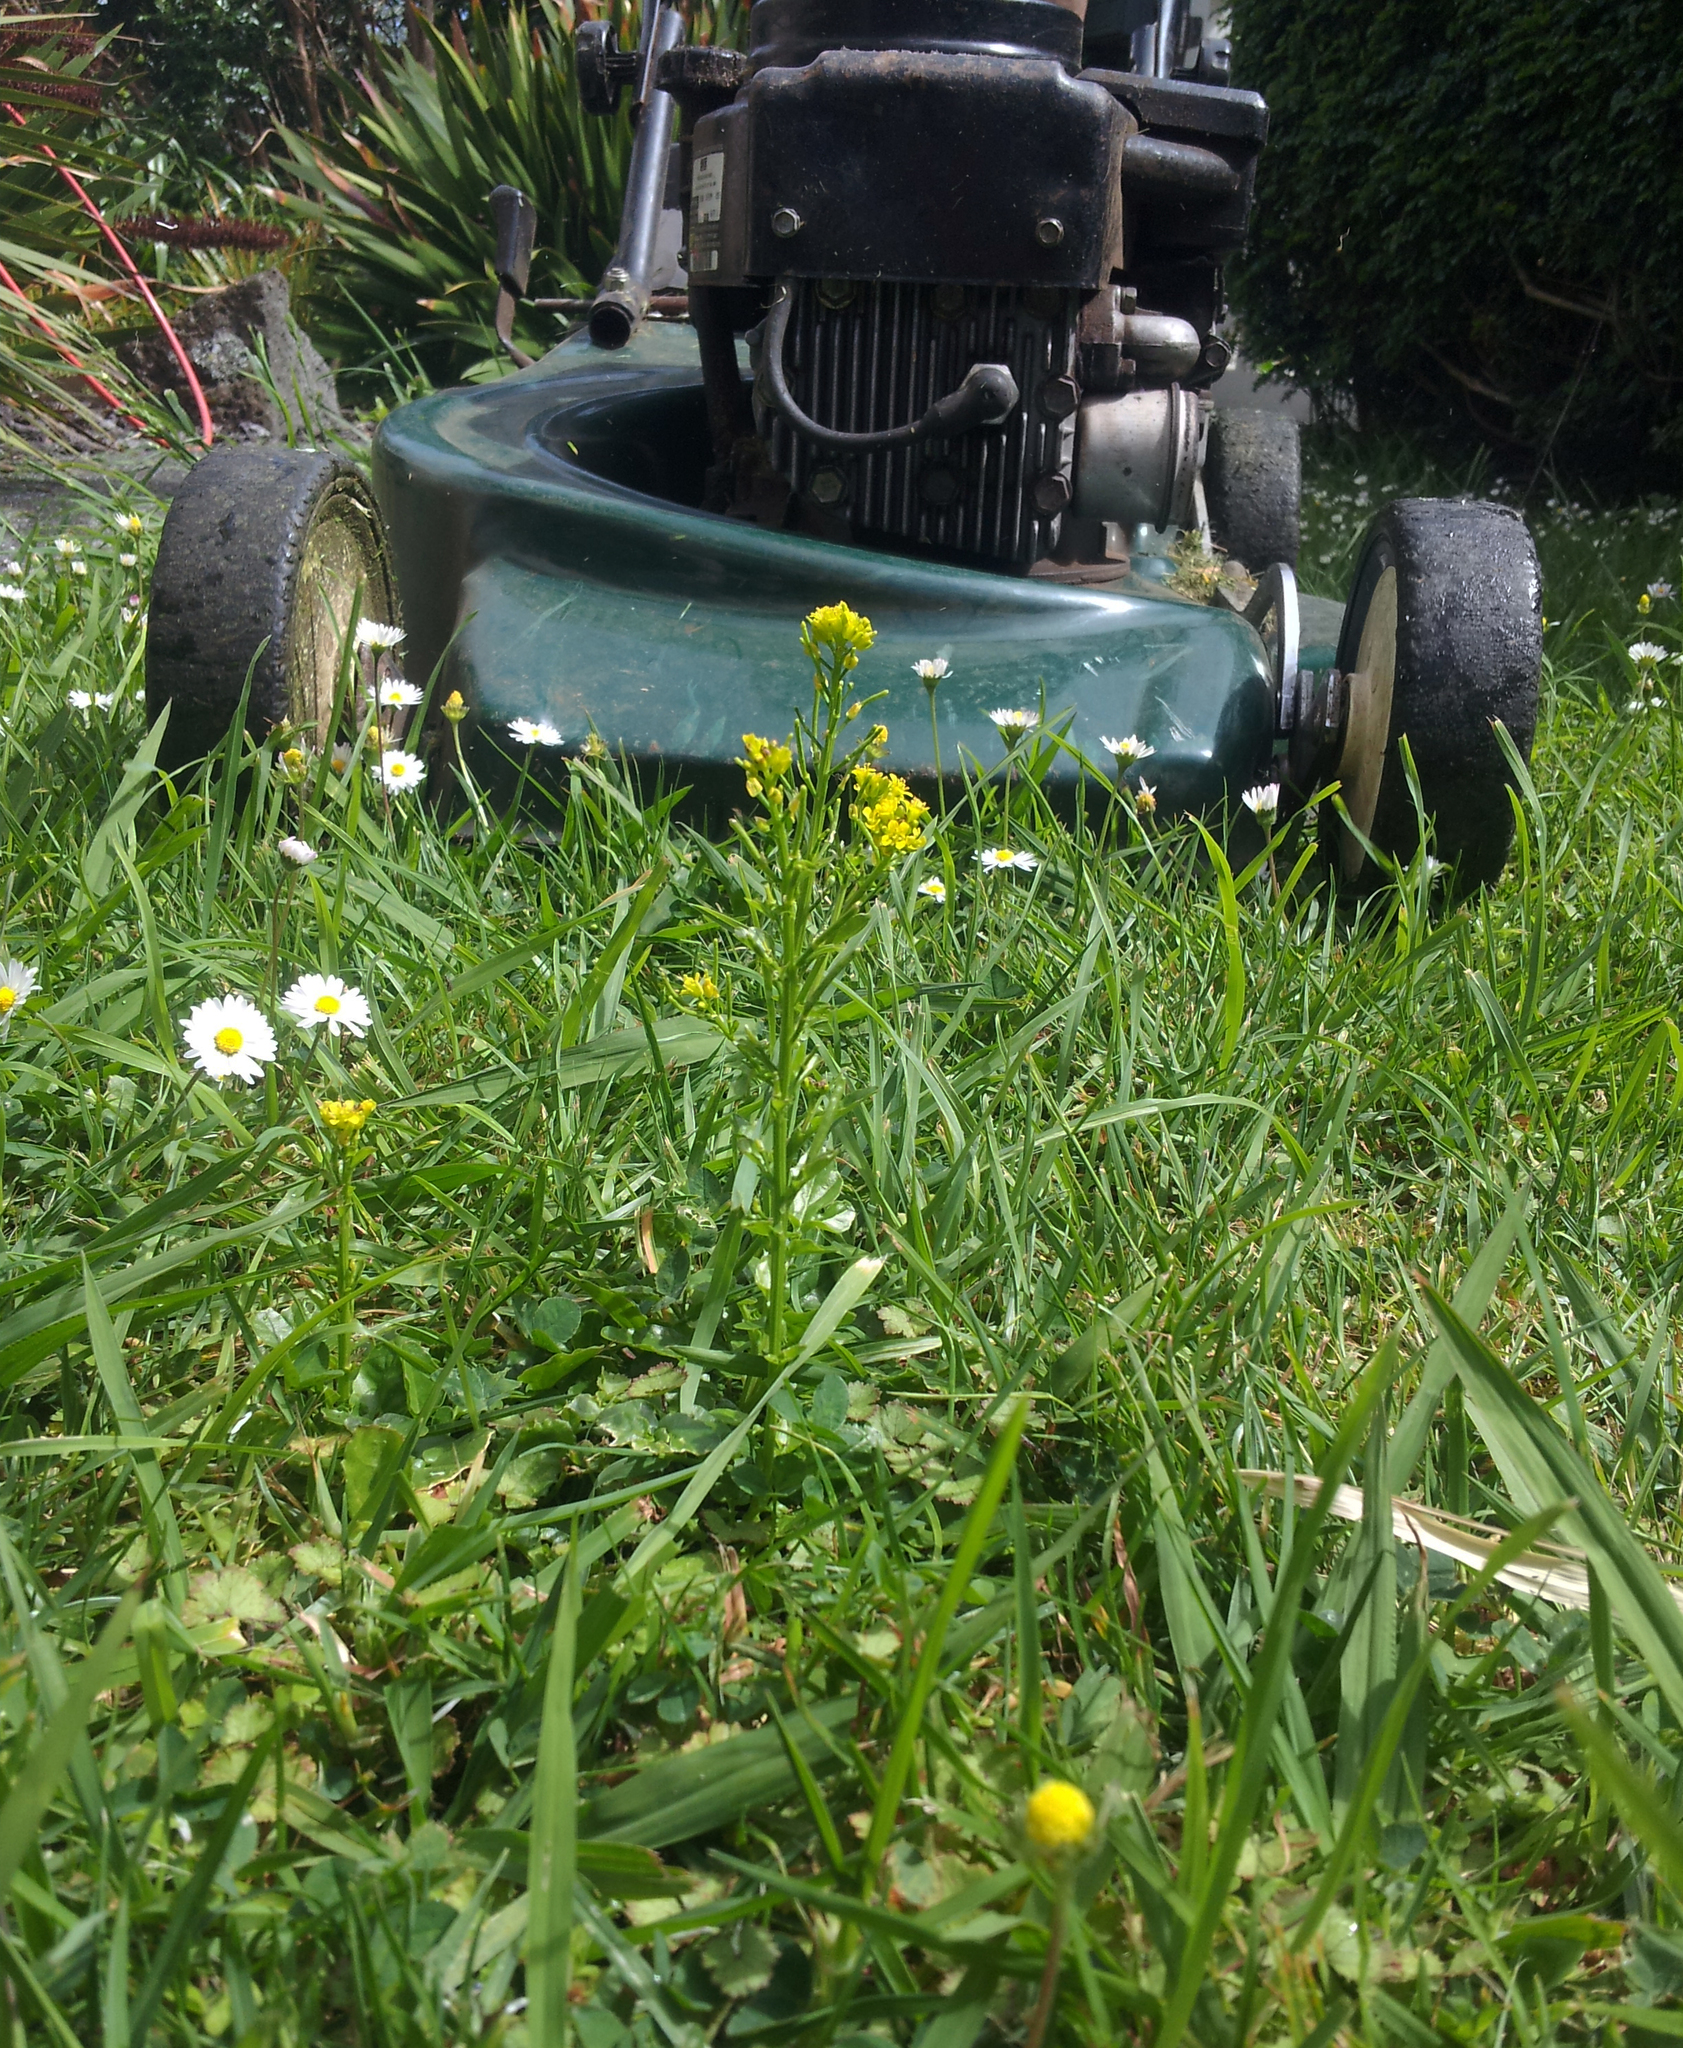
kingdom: Plantae
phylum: Tracheophyta
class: Magnoliopsida
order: Brassicales
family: Brassicaceae
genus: Barbarea
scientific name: Barbarea intermedia
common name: Medium-flowered winter-cress
